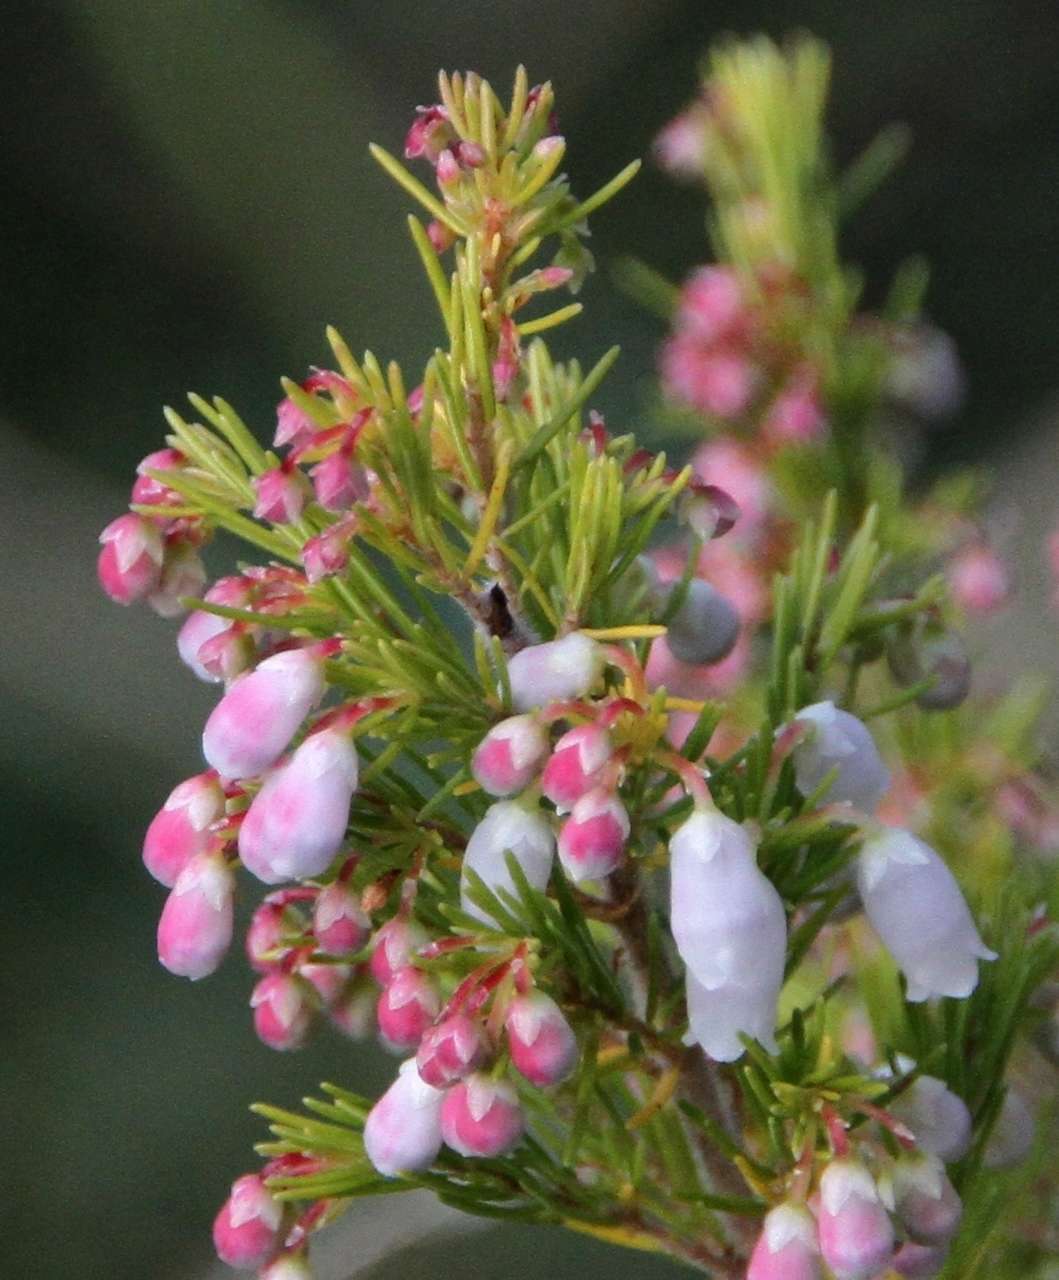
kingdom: Plantae
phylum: Tracheophyta
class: Magnoliopsida
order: Ericales
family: Ericaceae
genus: Erica
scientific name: Erica lusitanica
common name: Spanish heath
